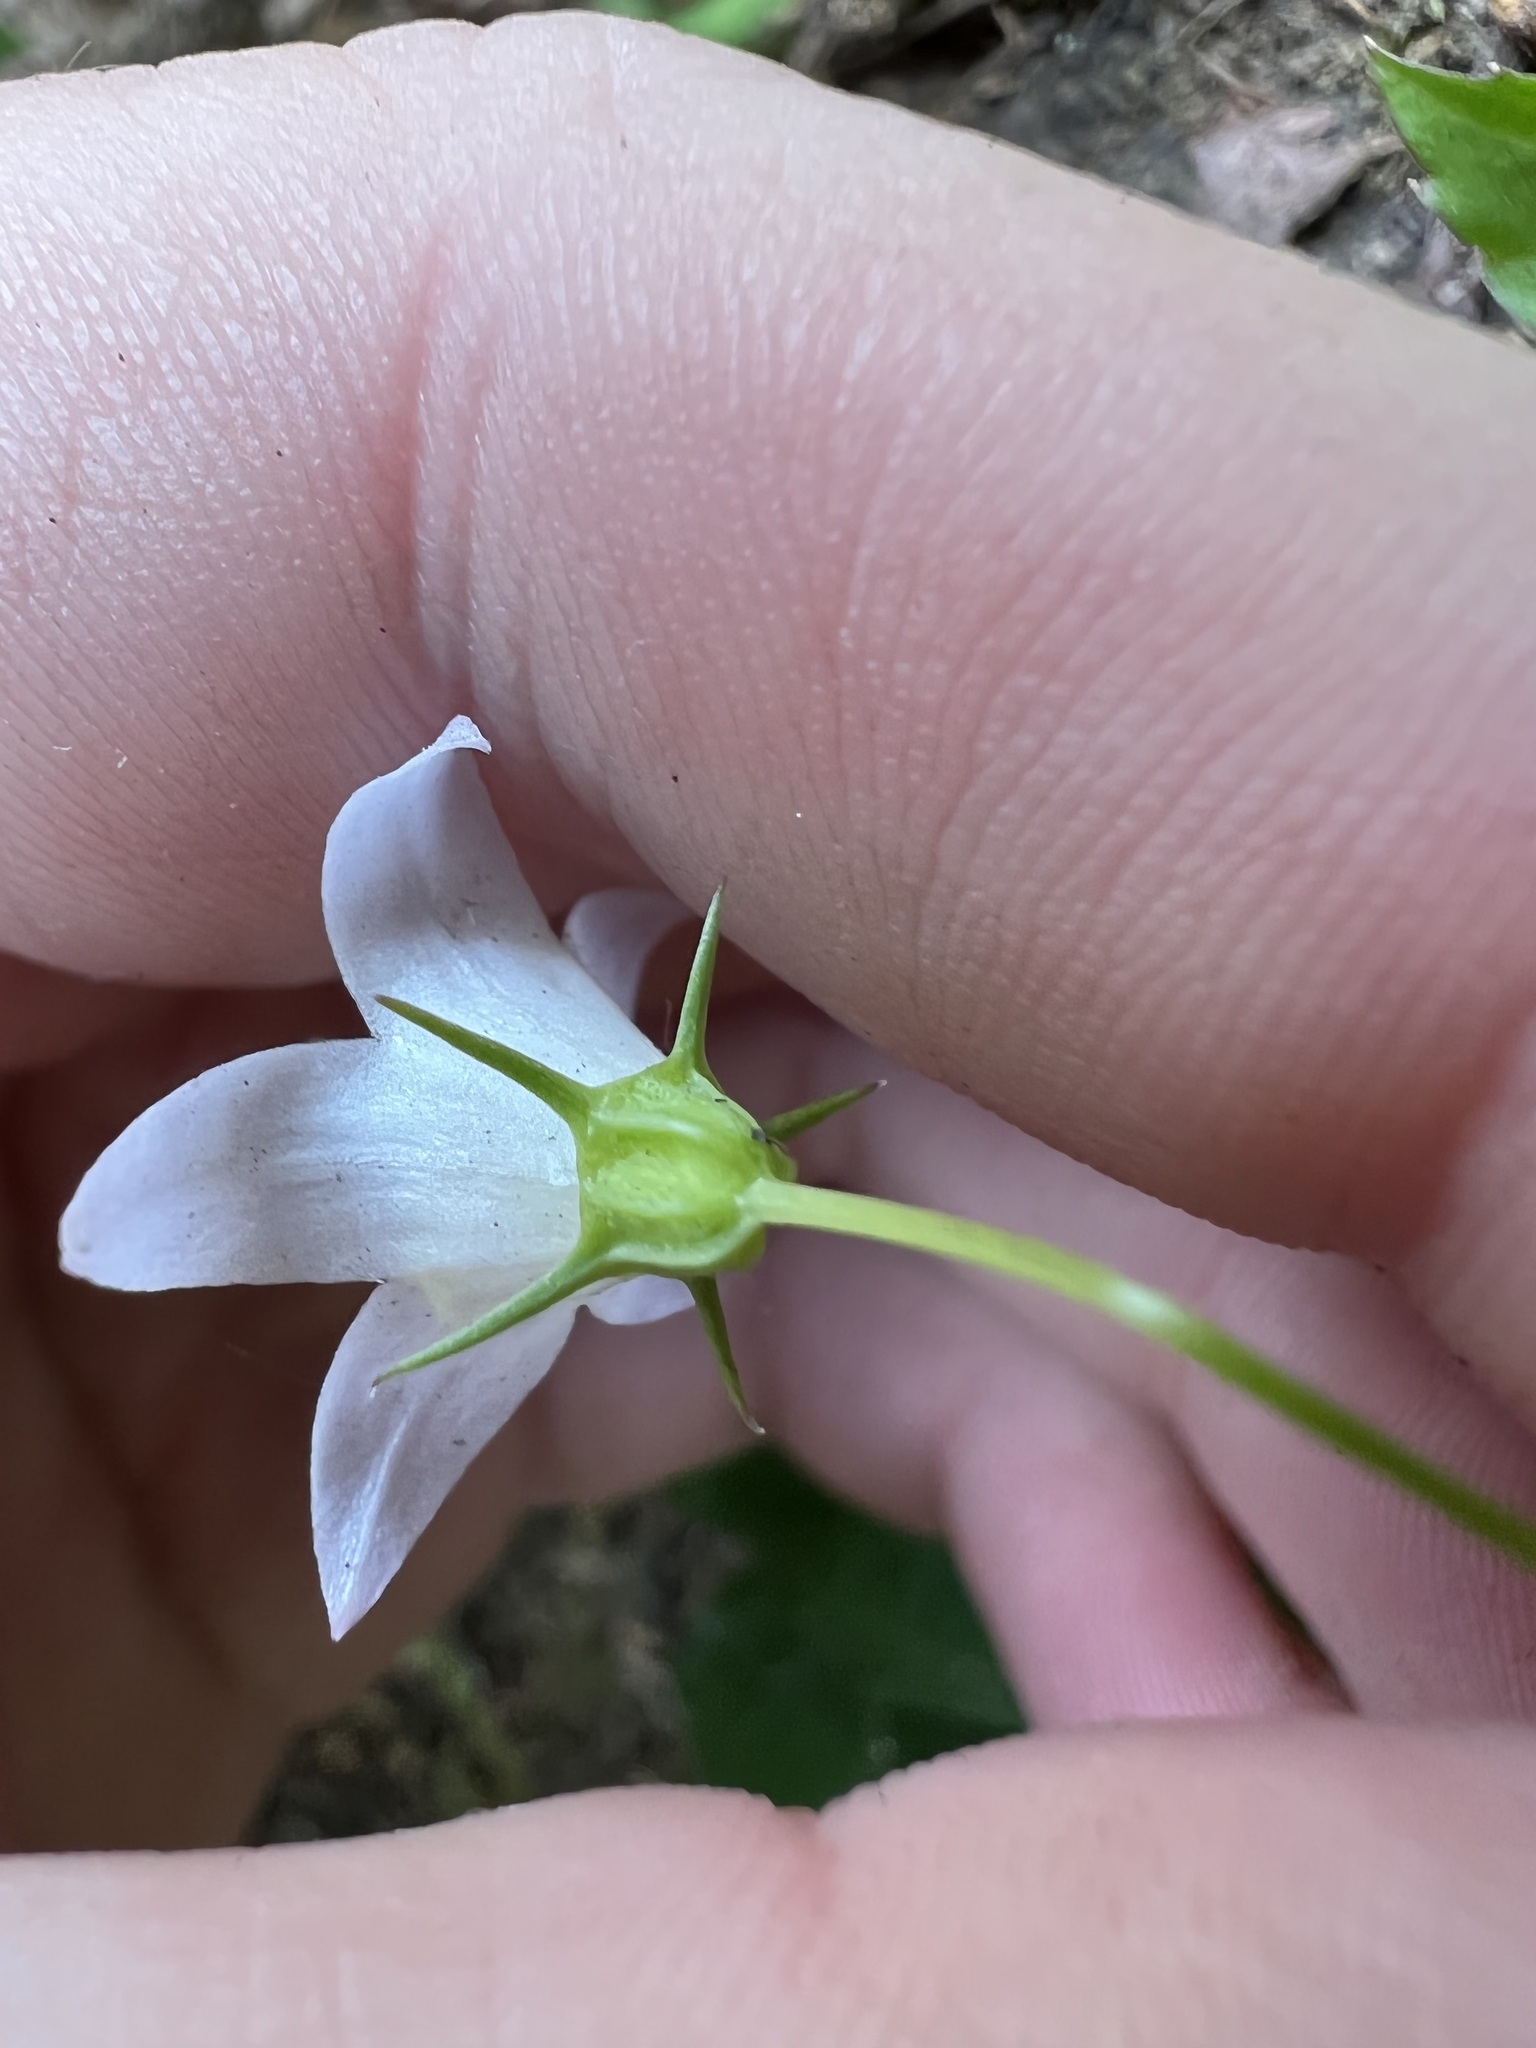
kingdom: Plantae
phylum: Tracheophyta
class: Magnoliopsida
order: Asterales
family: Campanulaceae
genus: Campanula
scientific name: Campanula scouleri
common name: Scouler's harebell
